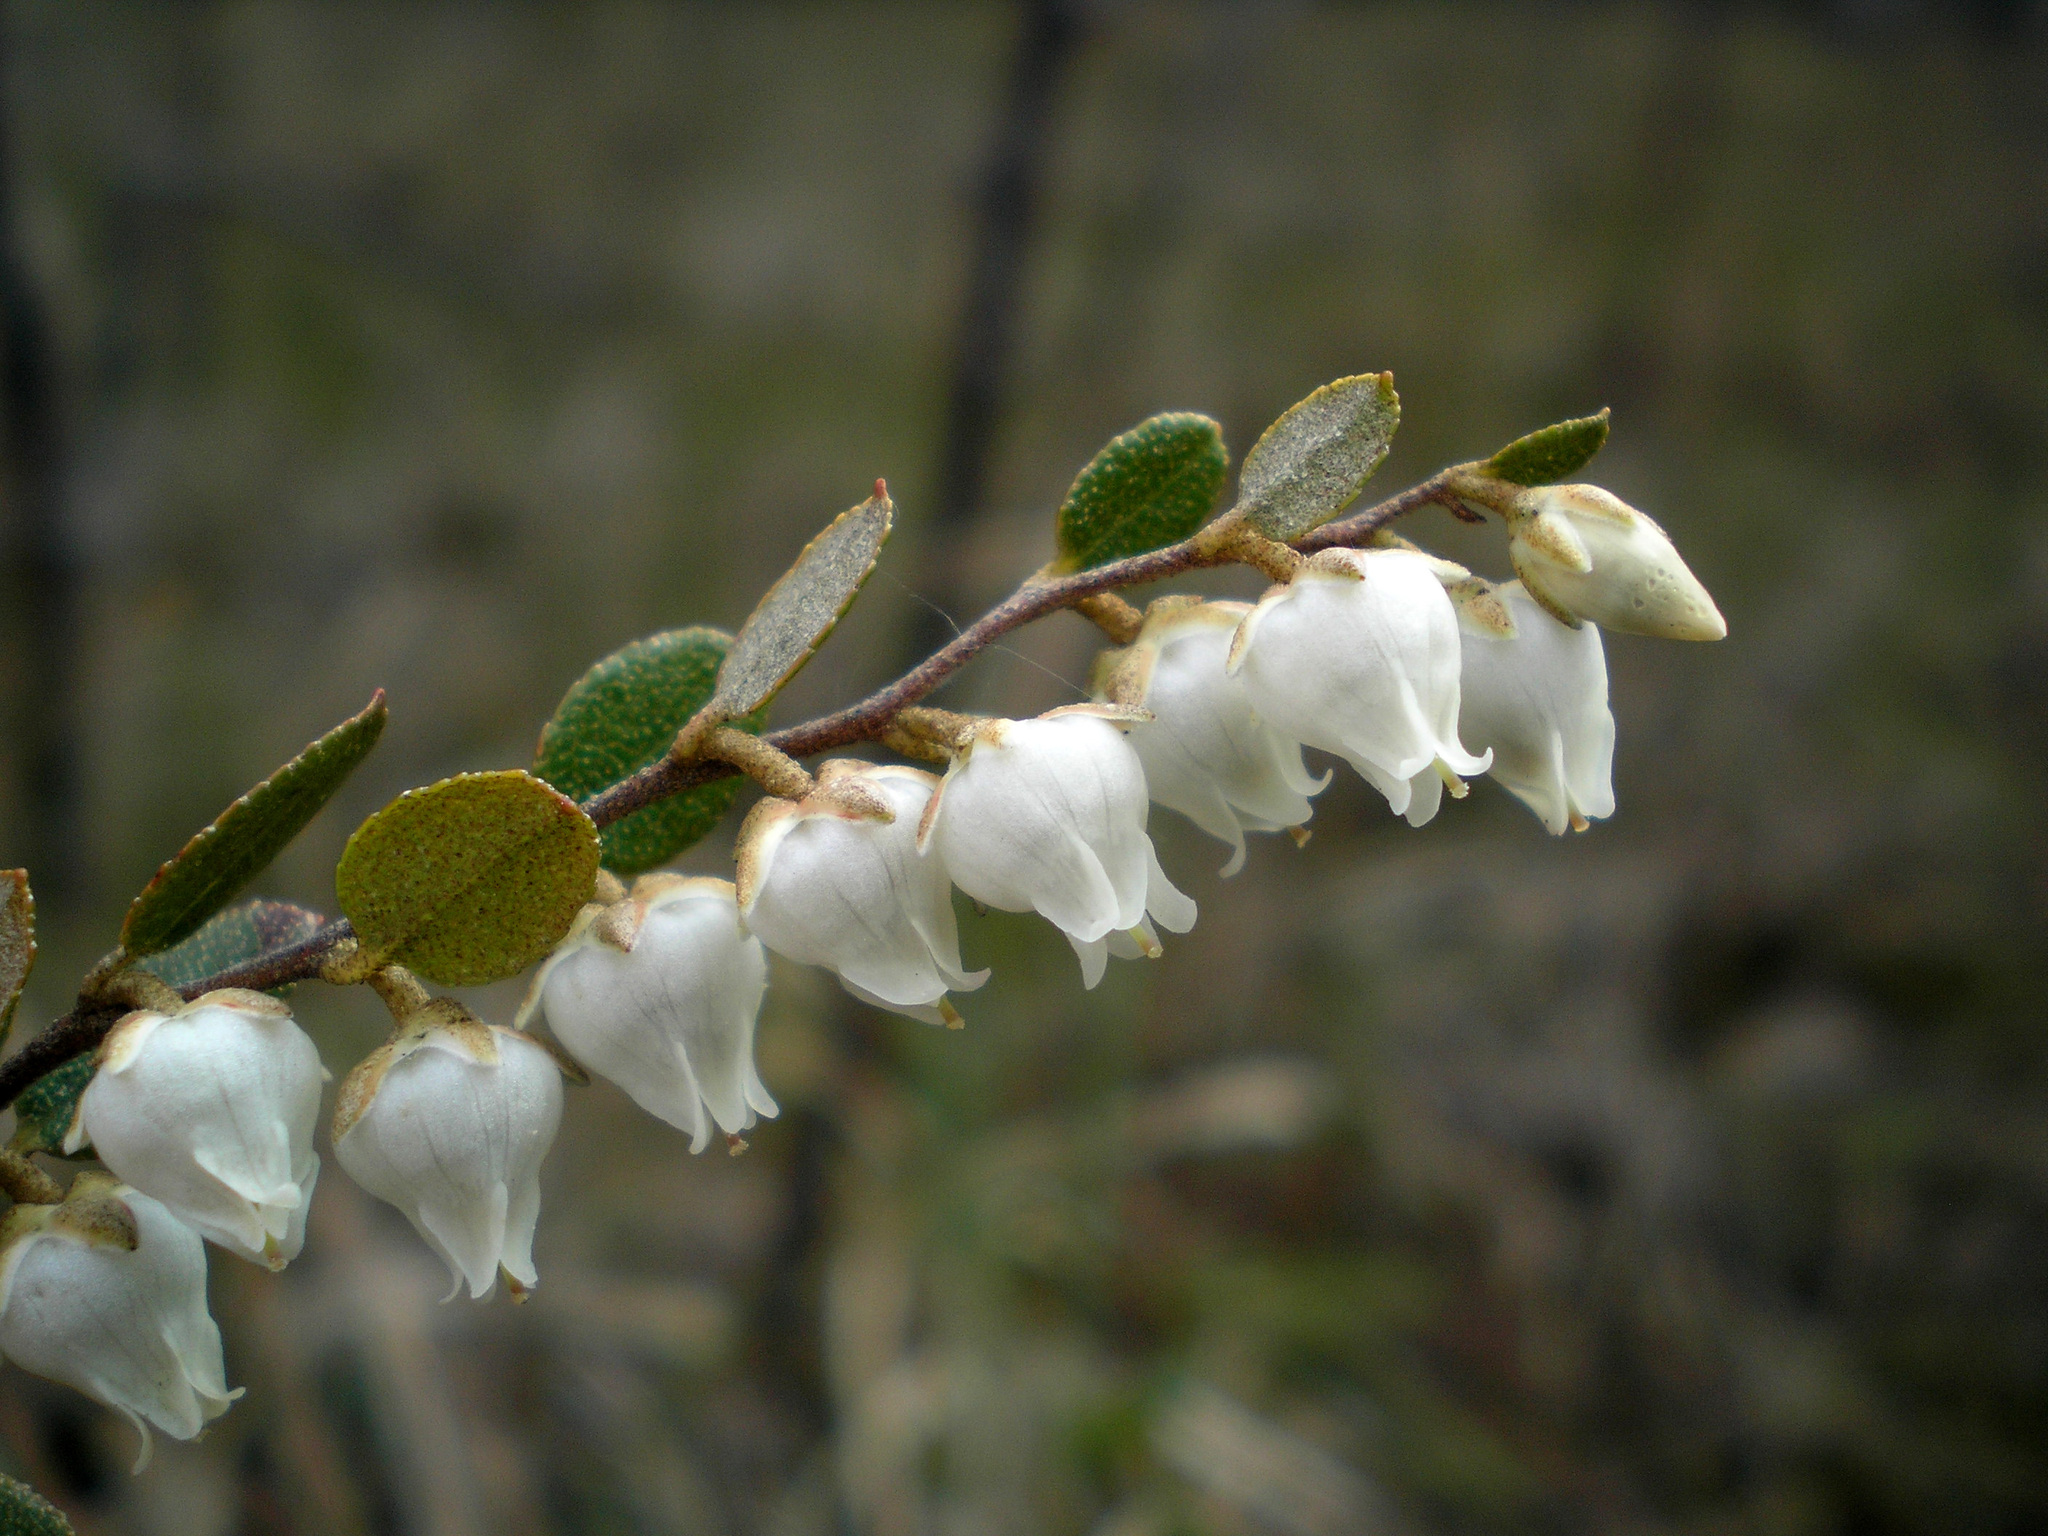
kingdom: Plantae
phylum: Tracheophyta
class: Magnoliopsida
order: Ericales
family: Ericaceae
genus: Chamaedaphne
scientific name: Chamaedaphne calyculata
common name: Leatherleaf
